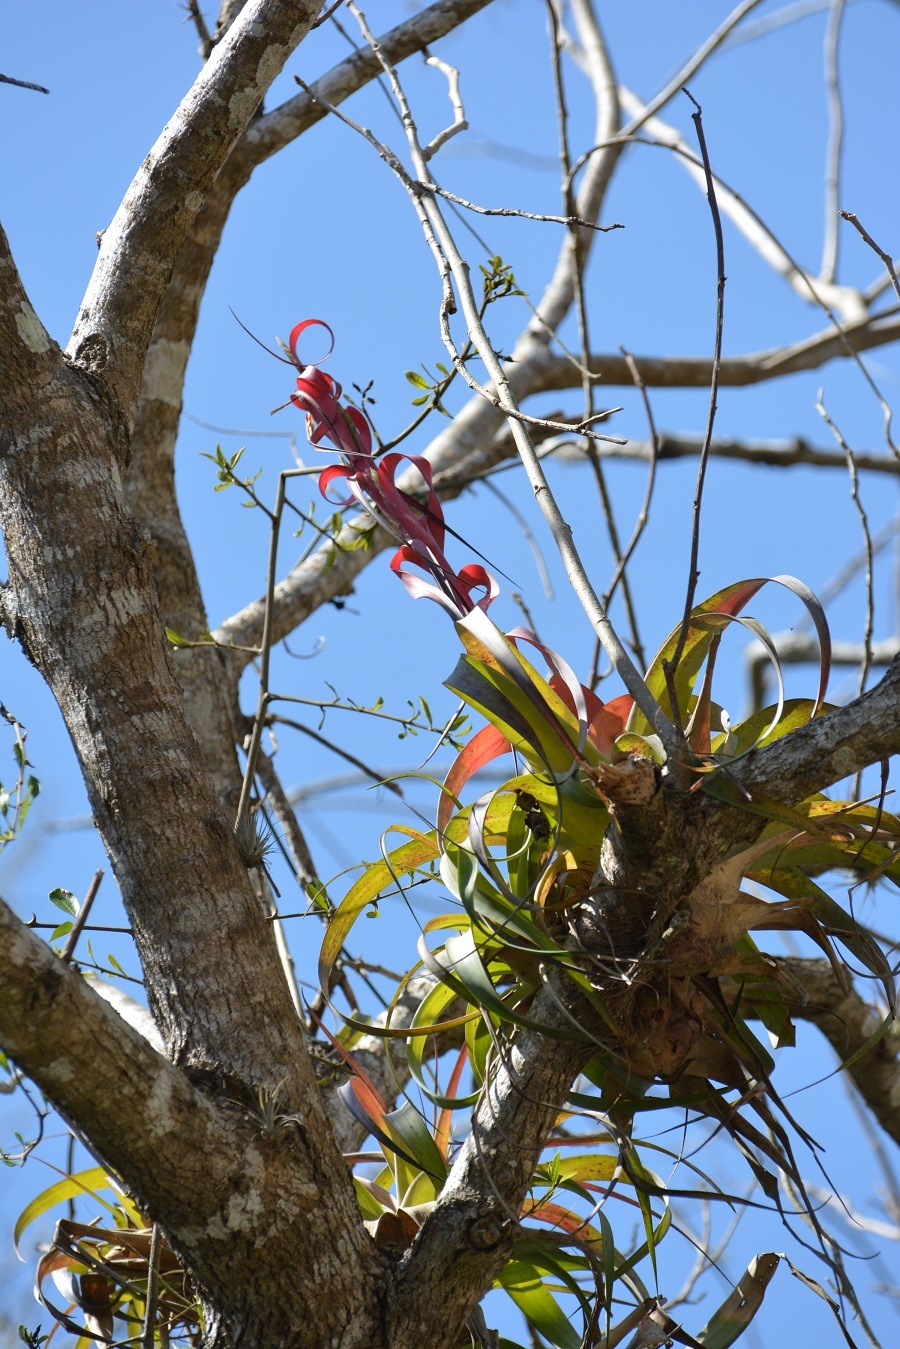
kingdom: Plantae
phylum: Tracheophyta
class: Liliopsida
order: Poales
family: Bromeliaceae
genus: Tillandsia
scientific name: Tillandsia belloensis
